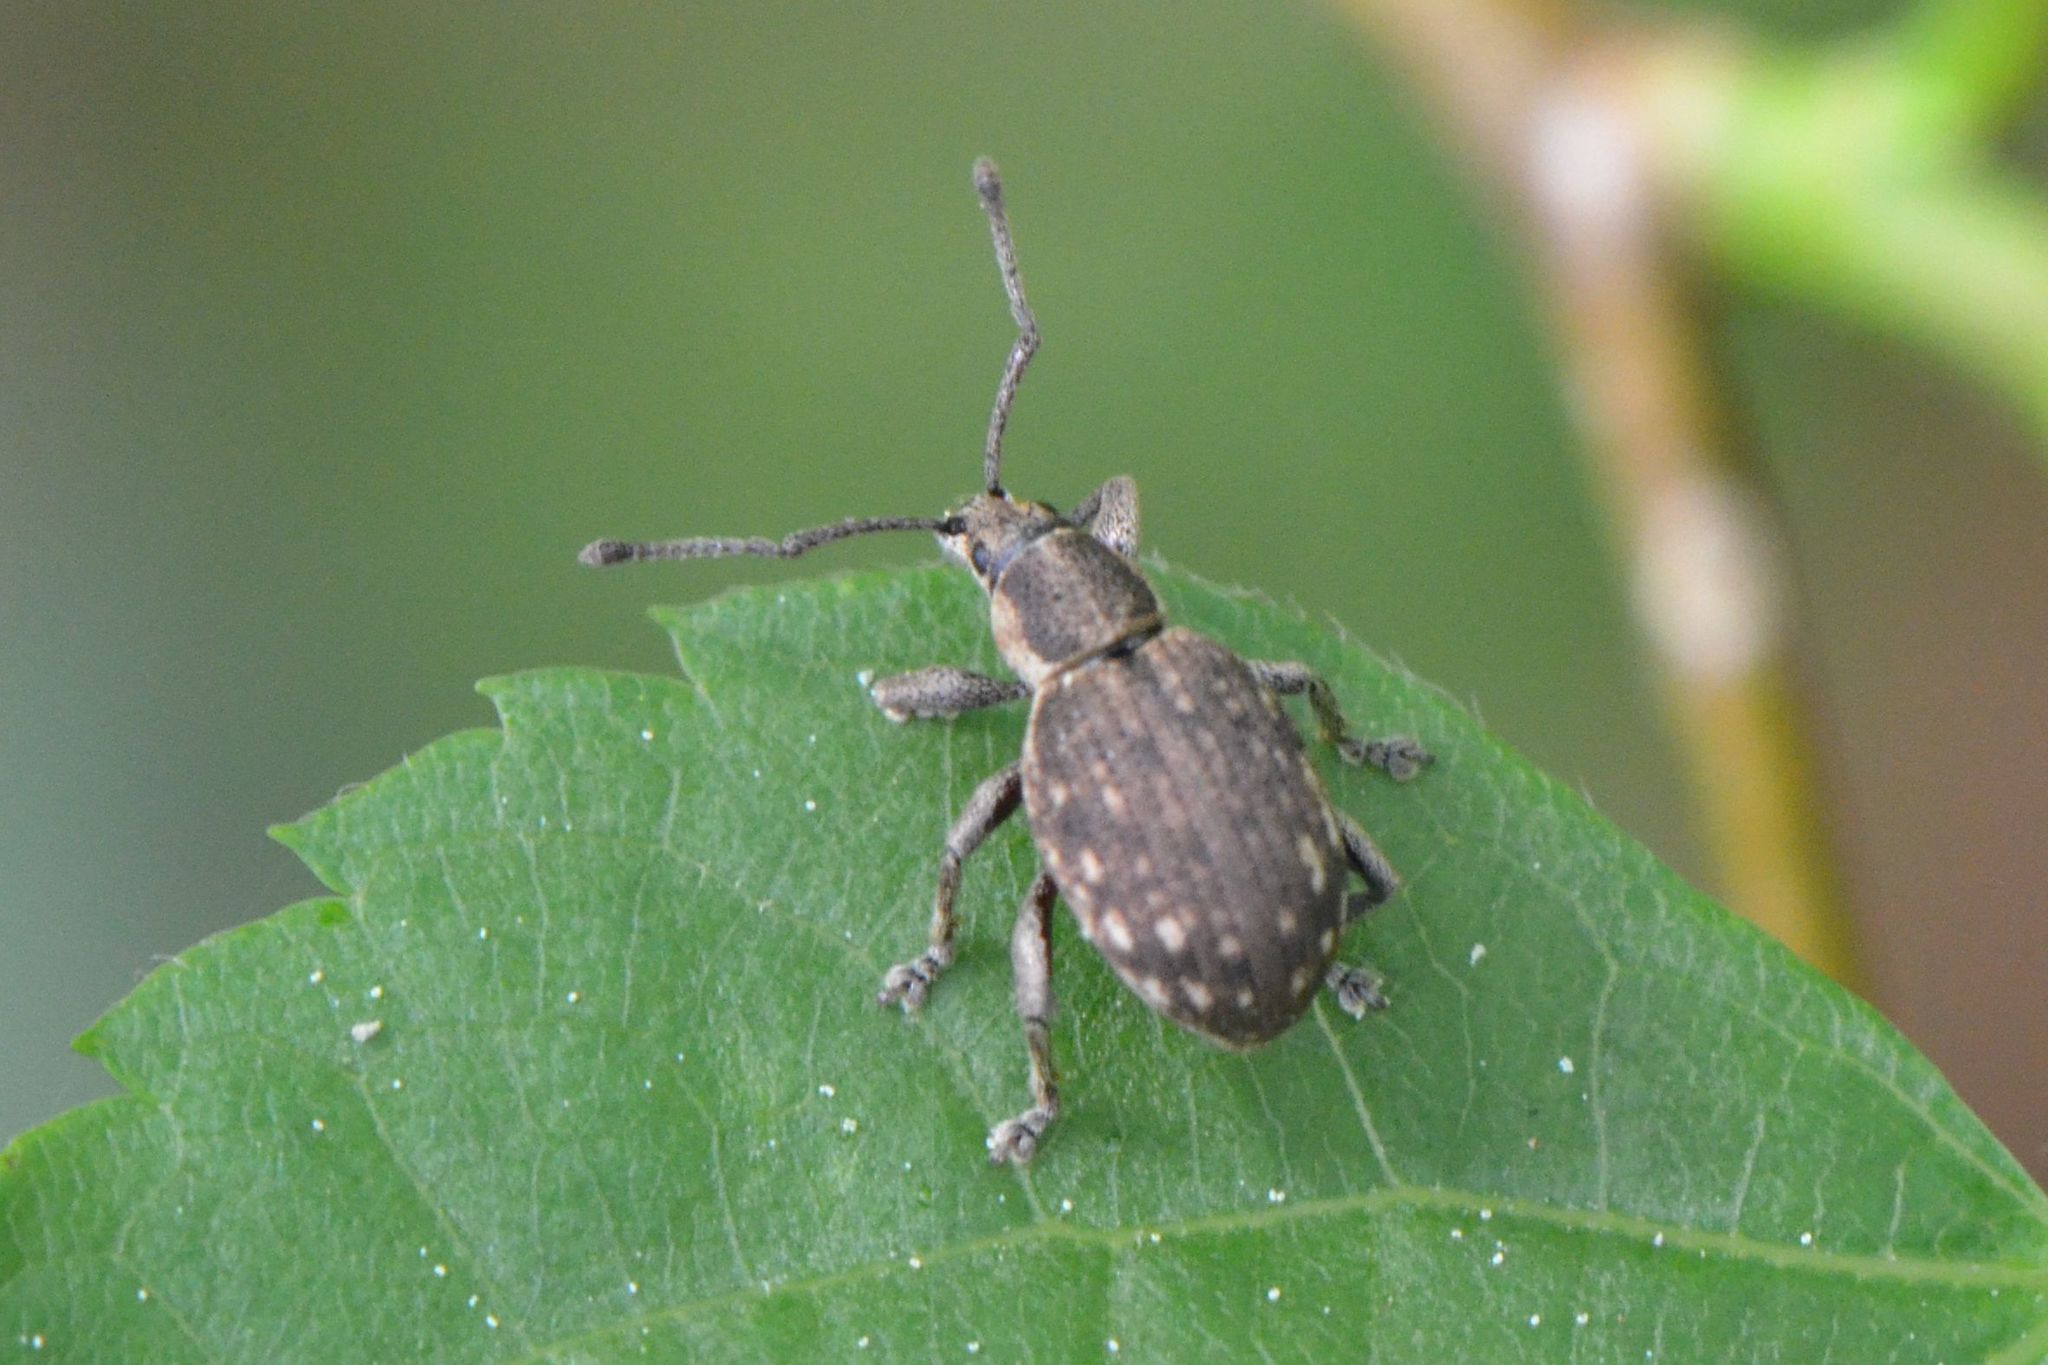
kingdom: Animalia
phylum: Arthropoda
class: Insecta
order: Coleoptera
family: Curculionidae
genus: Peritelus
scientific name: Peritelus sphaeroides
